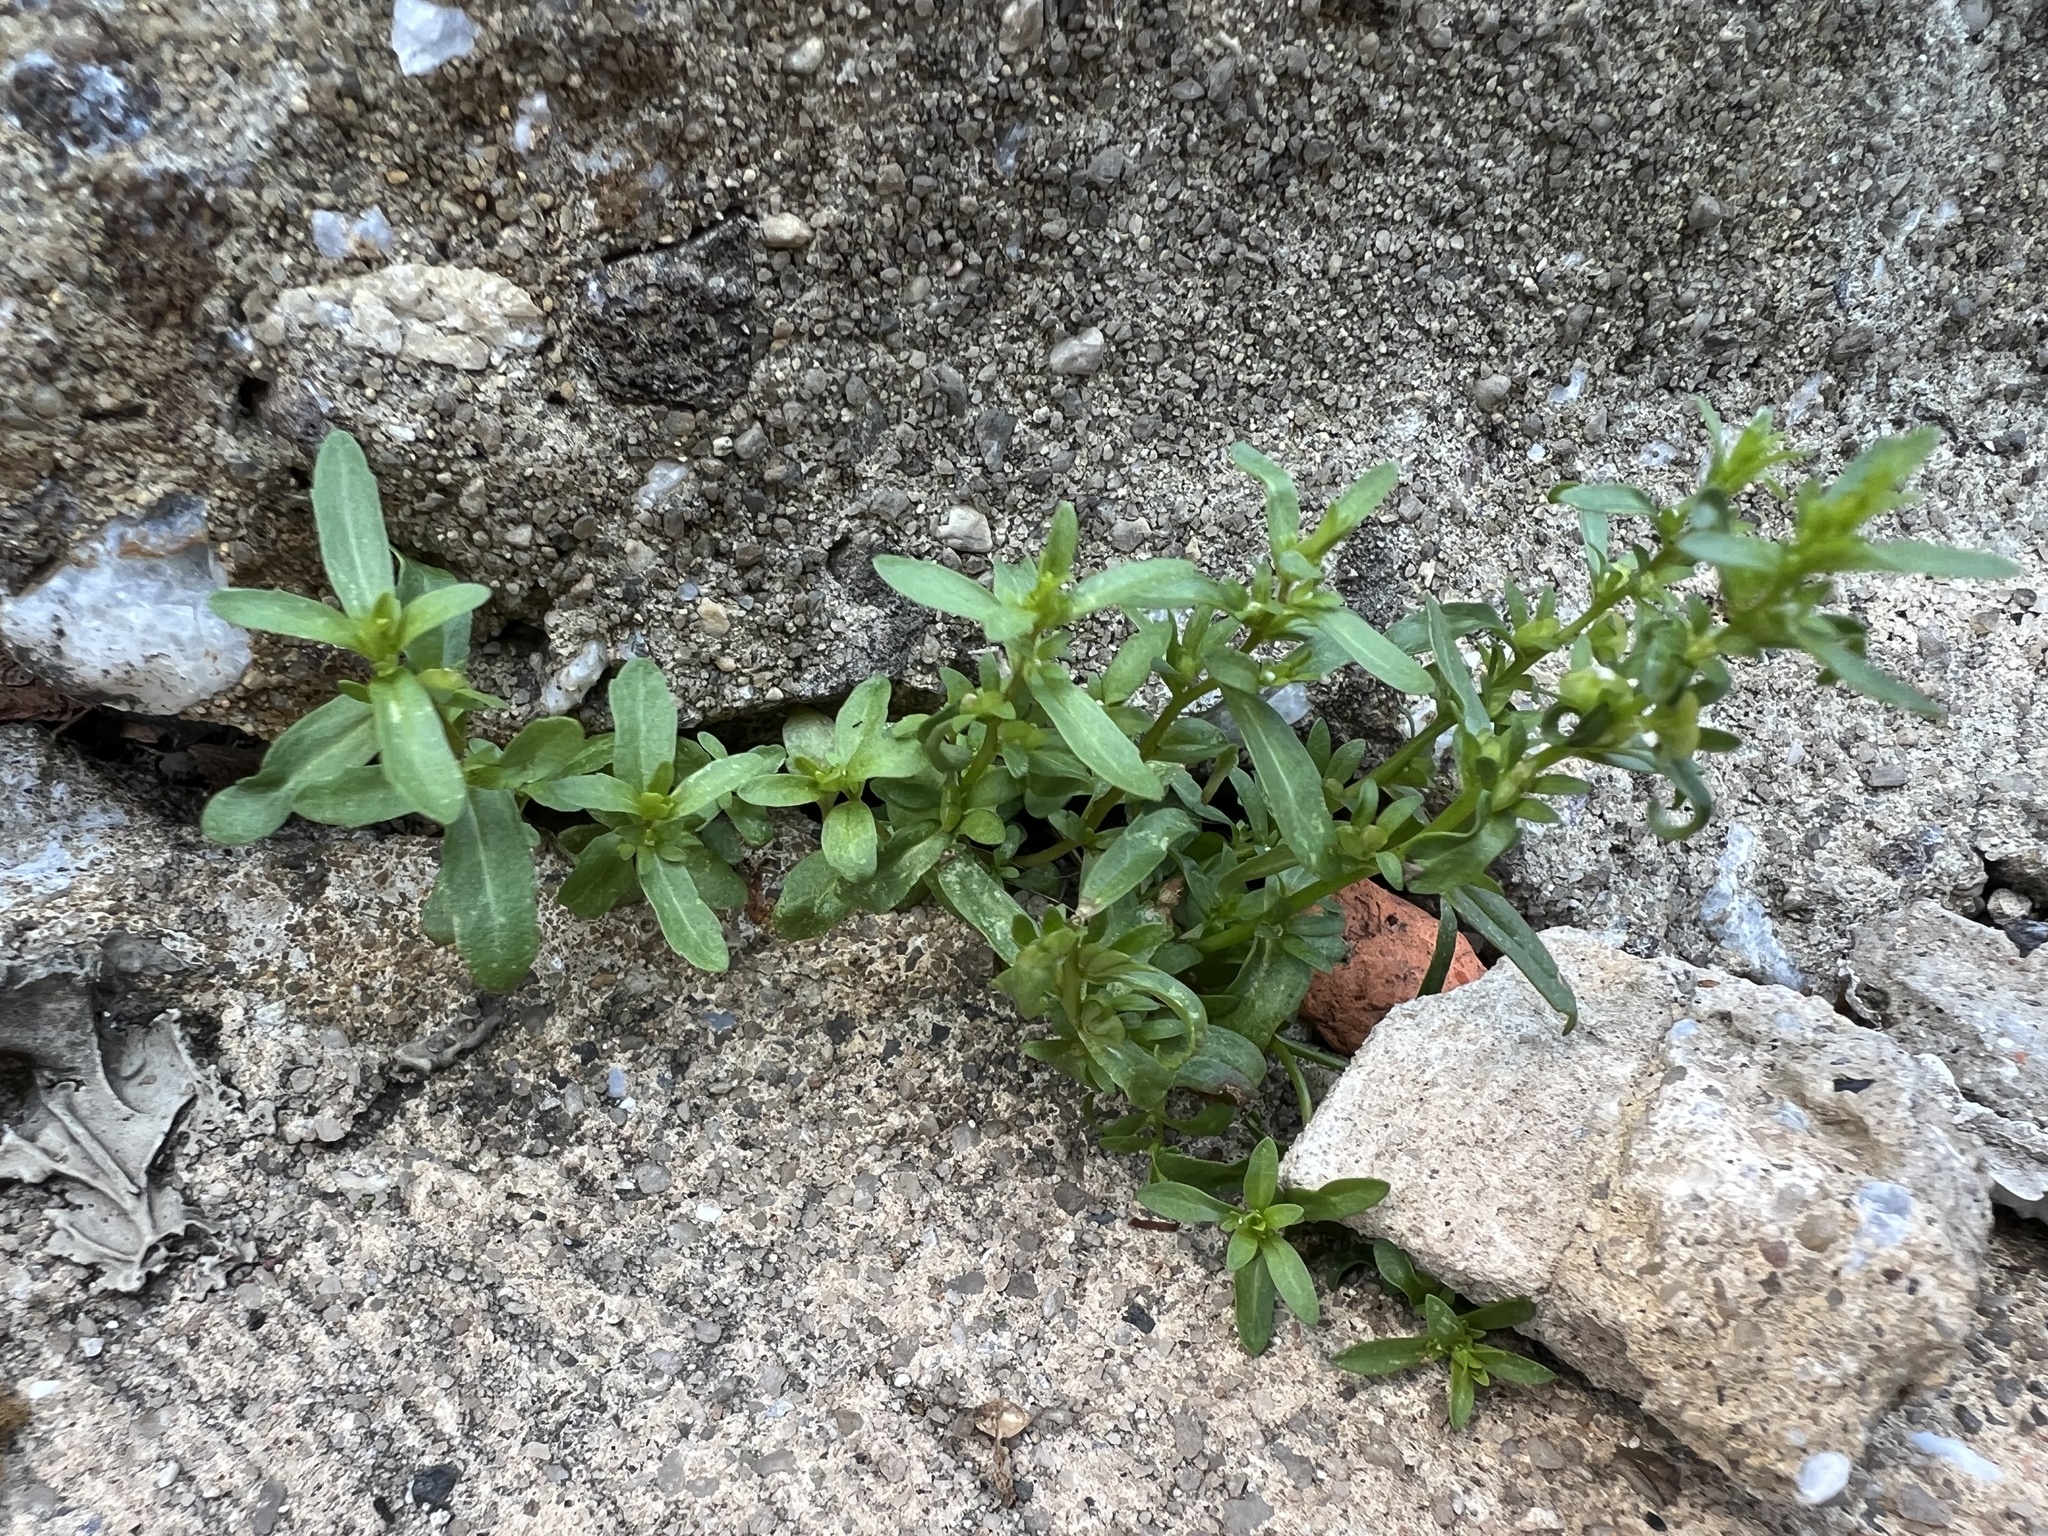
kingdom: Plantae
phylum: Tracheophyta
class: Magnoliopsida
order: Lamiales
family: Plantaginaceae
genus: Veronica
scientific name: Veronica peregrina
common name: Neckweed
